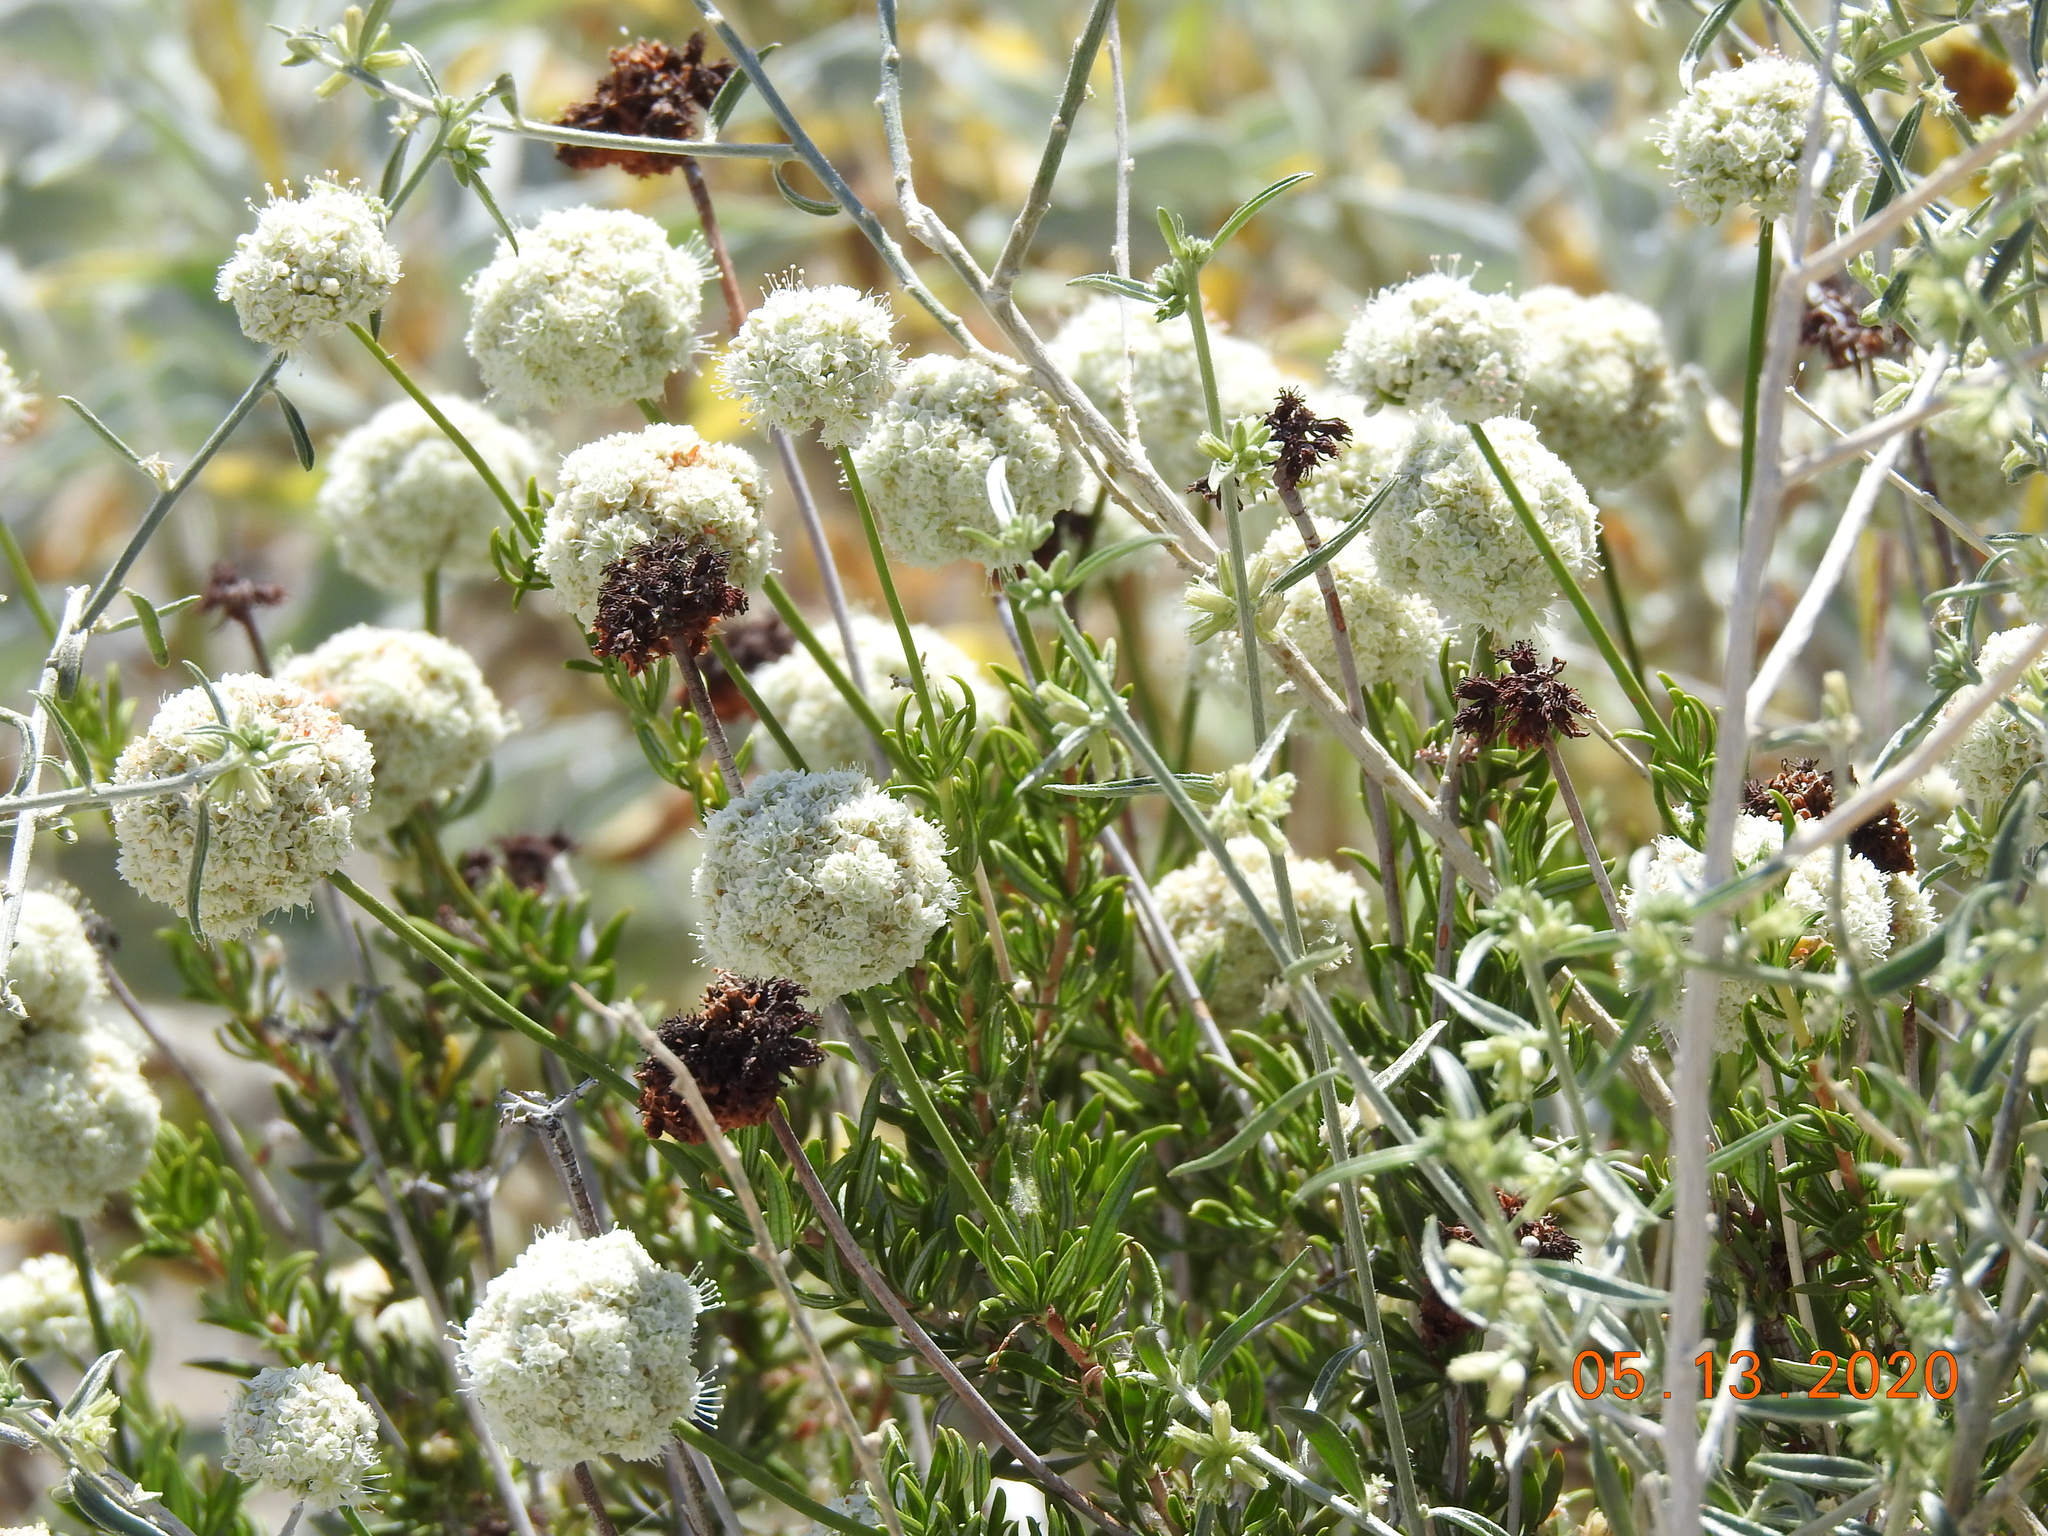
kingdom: Plantae
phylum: Tracheophyta
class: Magnoliopsida
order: Caryophyllales
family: Polygonaceae
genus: Eriogonum
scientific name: Eriogonum fasciculatum
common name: California wild buckwheat
